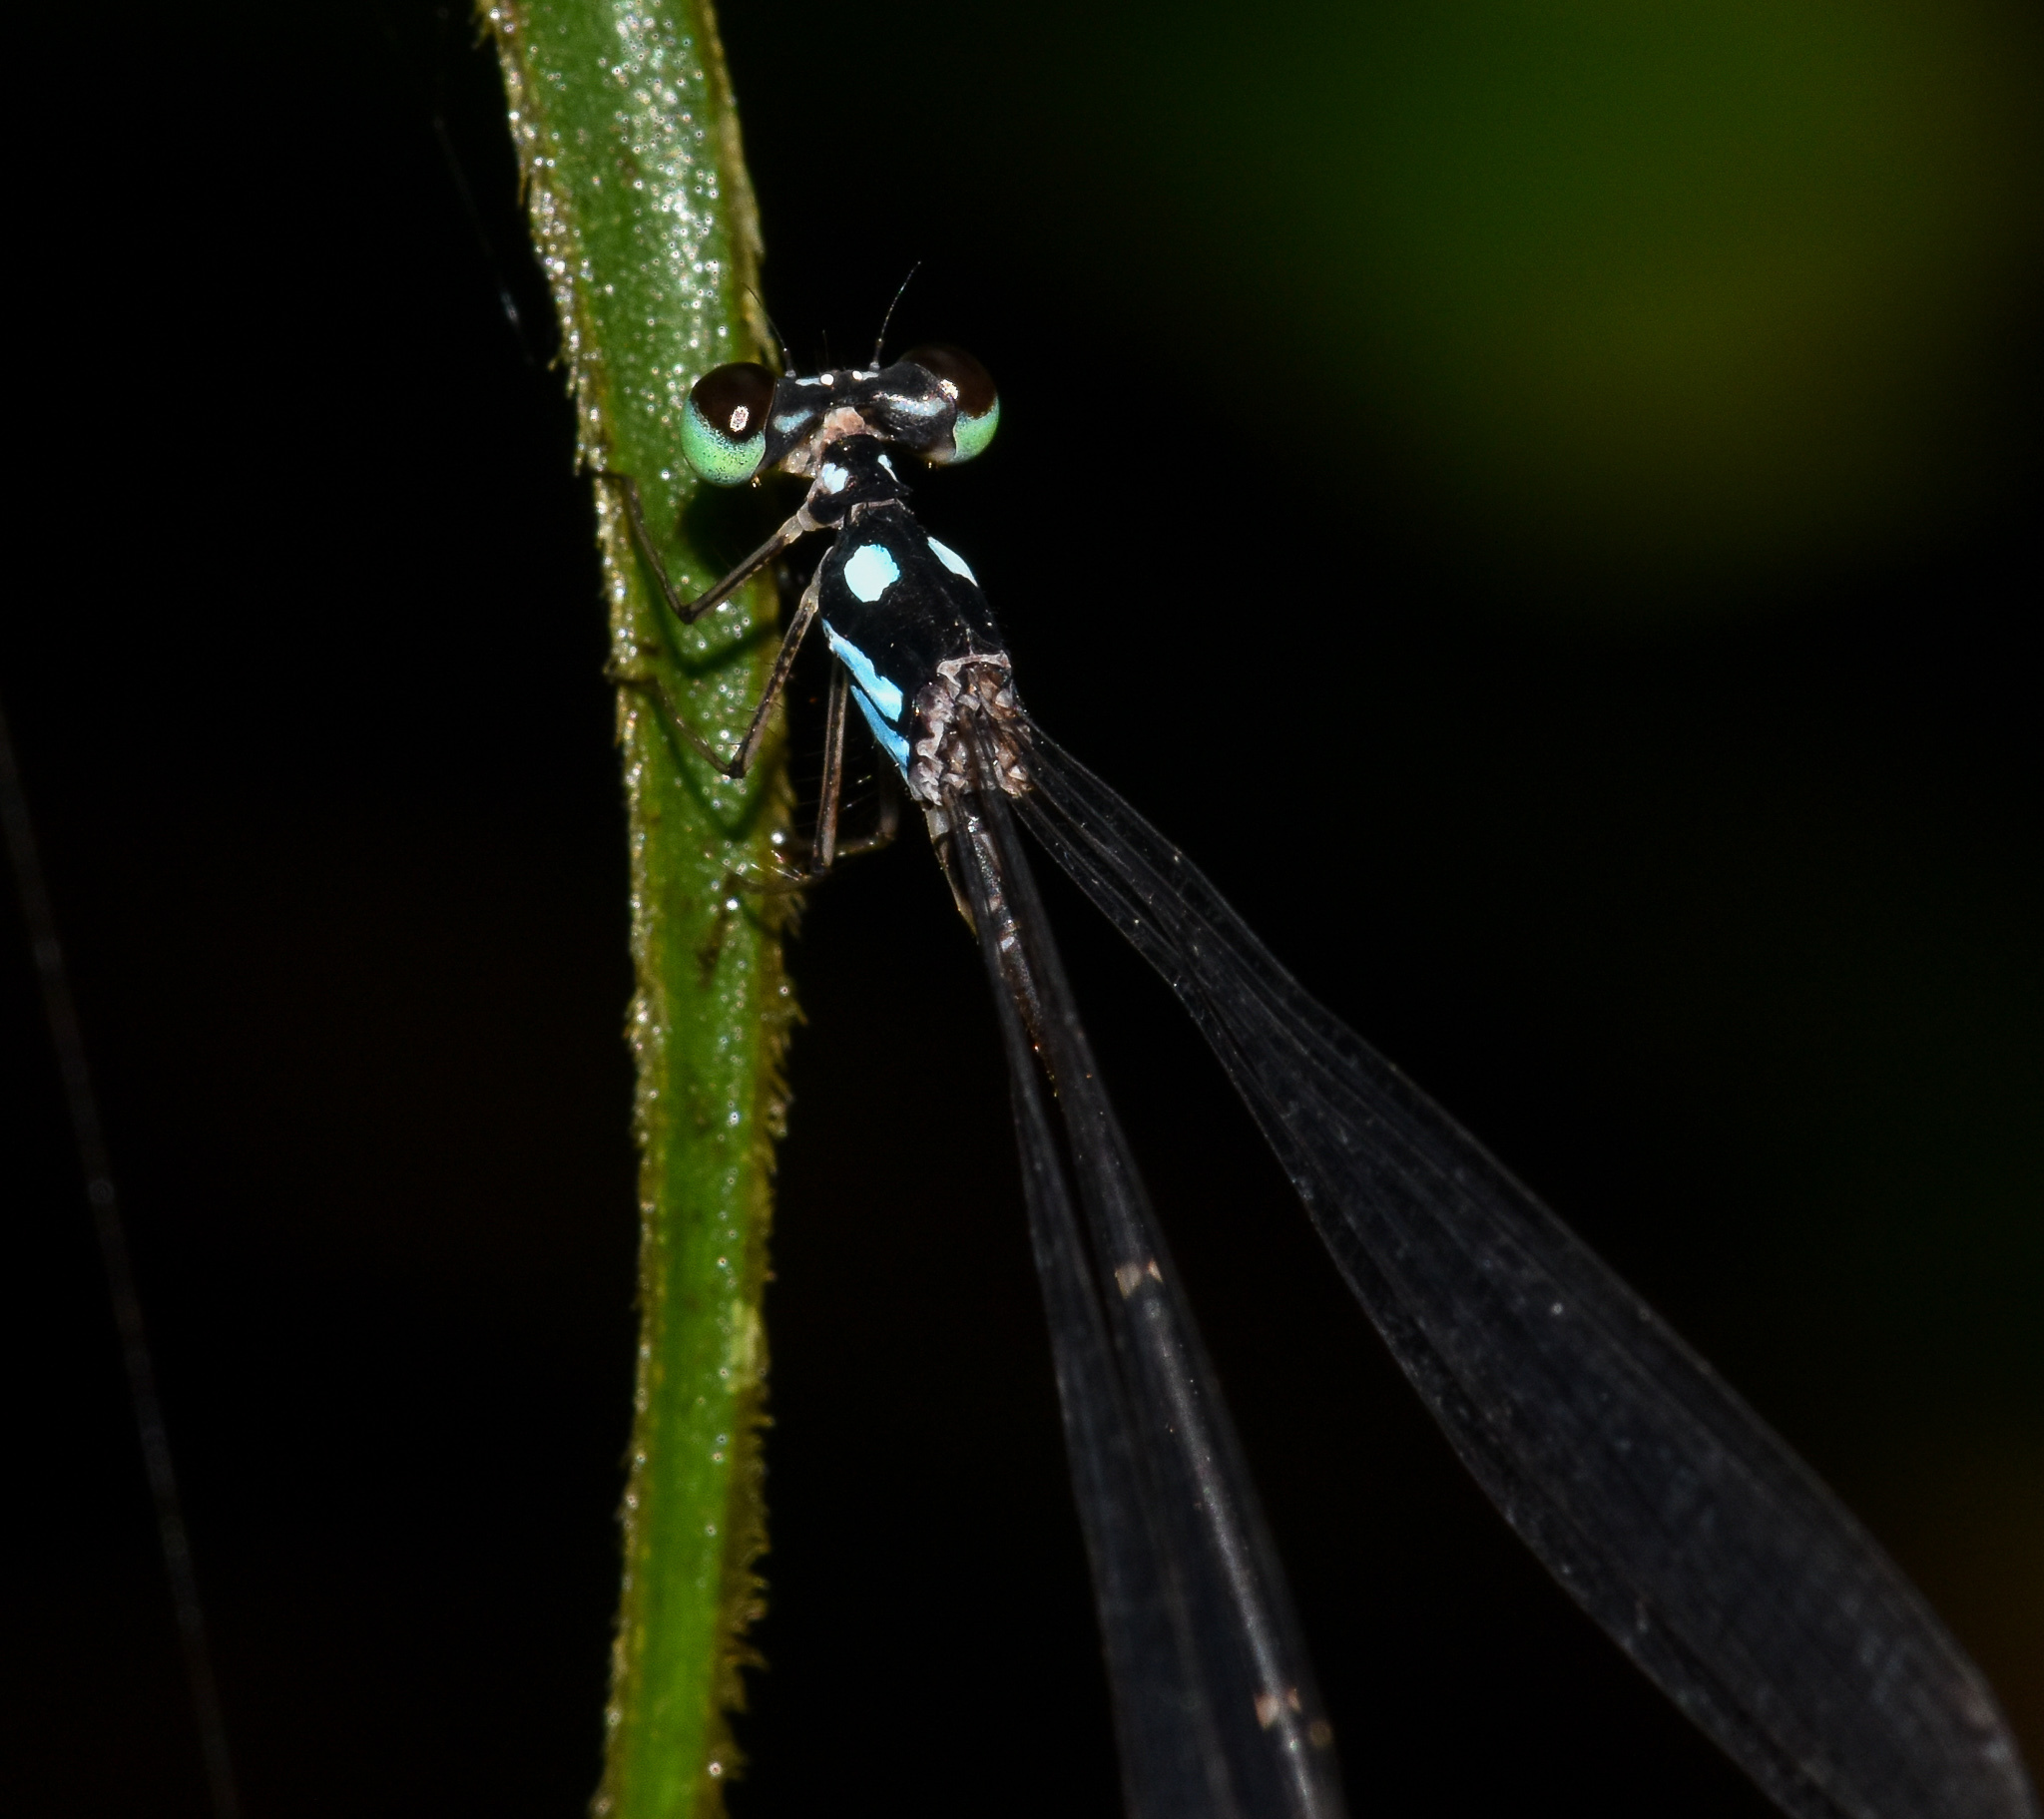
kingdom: Animalia
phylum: Arthropoda
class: Insecta
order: Odonata
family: Platycnemididae
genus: Coeliccia
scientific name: Coeliccia bimaculata
